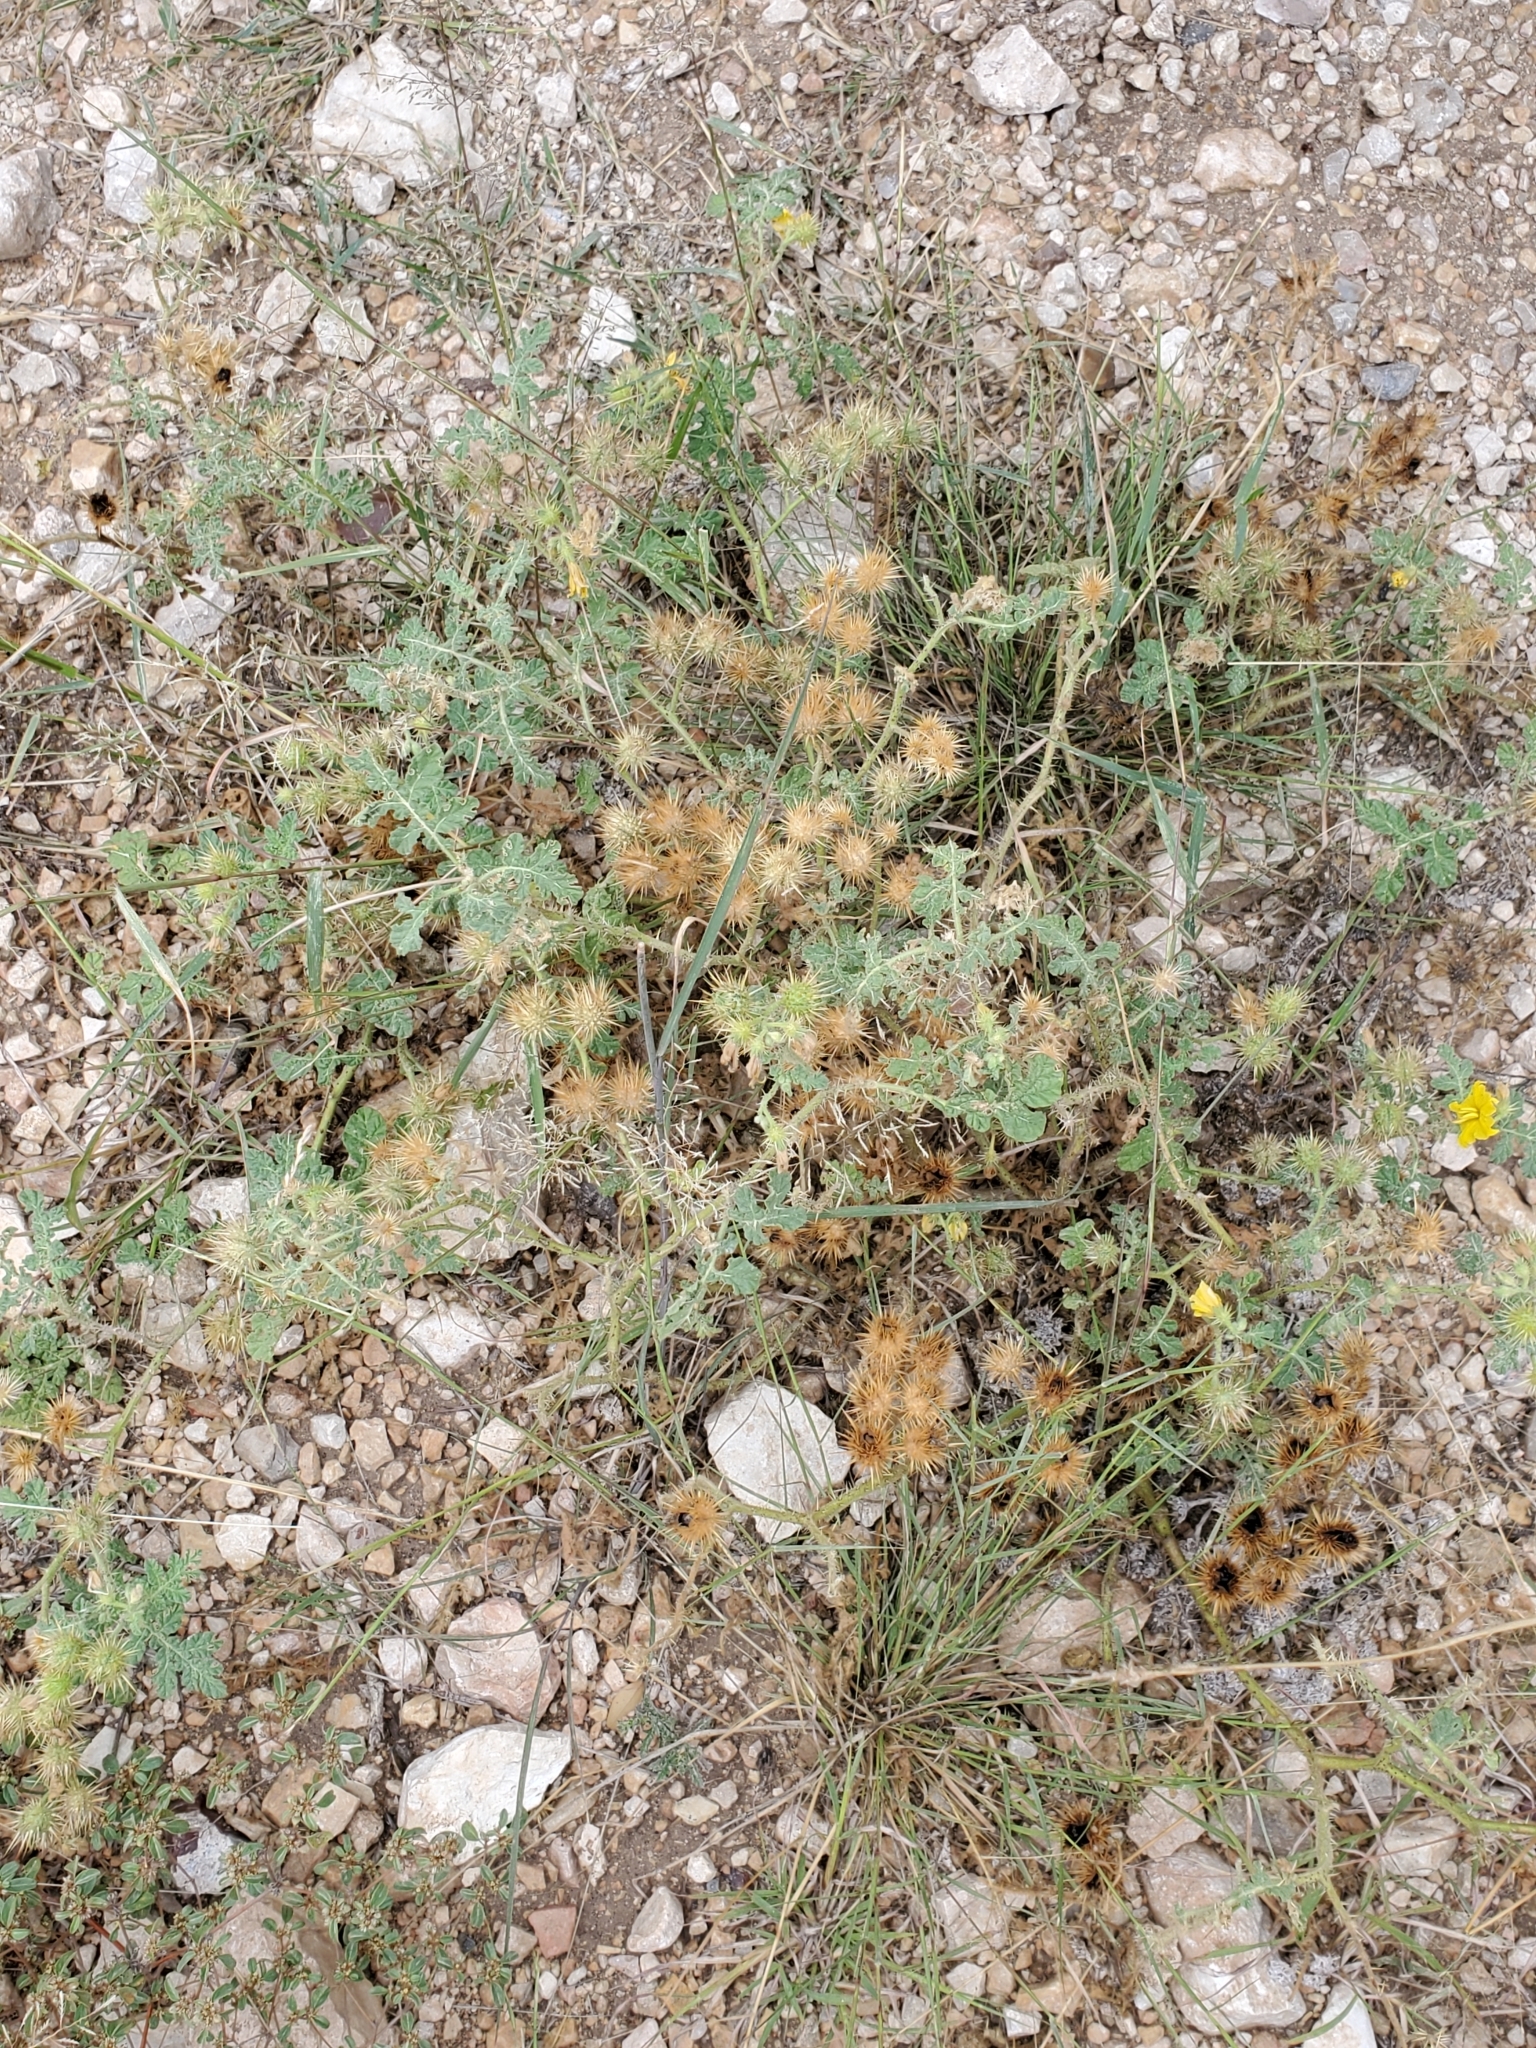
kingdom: Plantae
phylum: Tracheophyta
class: Magnoliopsida
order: Solanales
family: Solanaceae
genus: Solanum
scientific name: Solanum angustifolium
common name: Buffalobur nightshade
